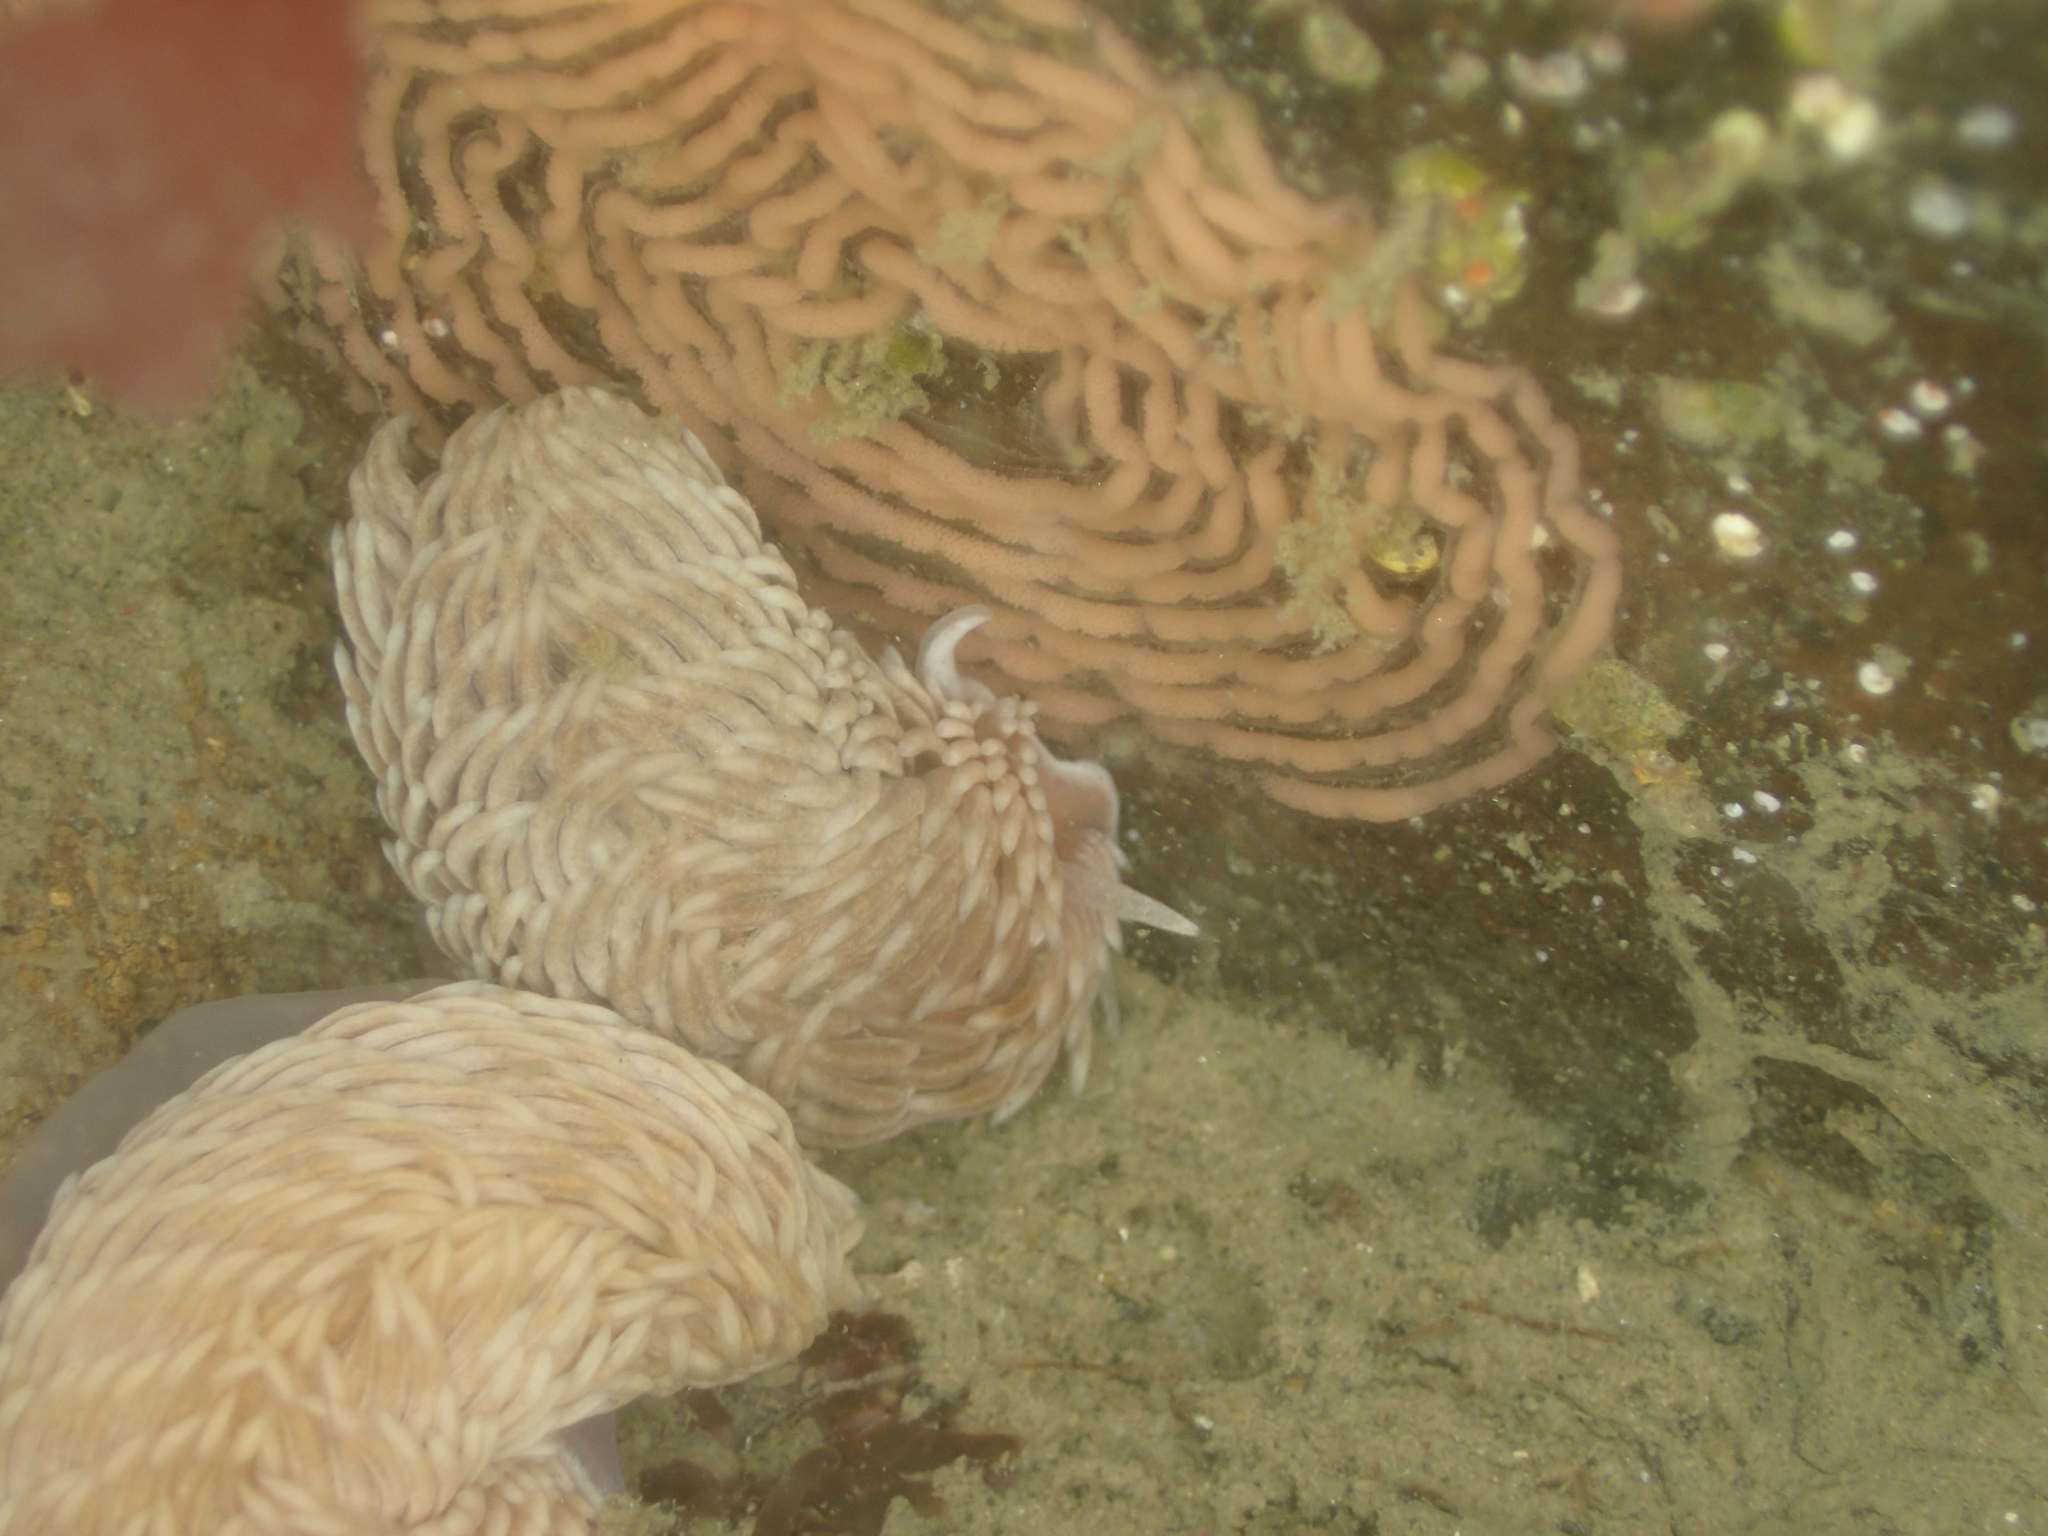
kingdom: Animalia
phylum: Mollusca
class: Gastropoda
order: Nudibranchia
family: Aeolidiidae
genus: Aeolidiella
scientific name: Aeolidiella drusilla
